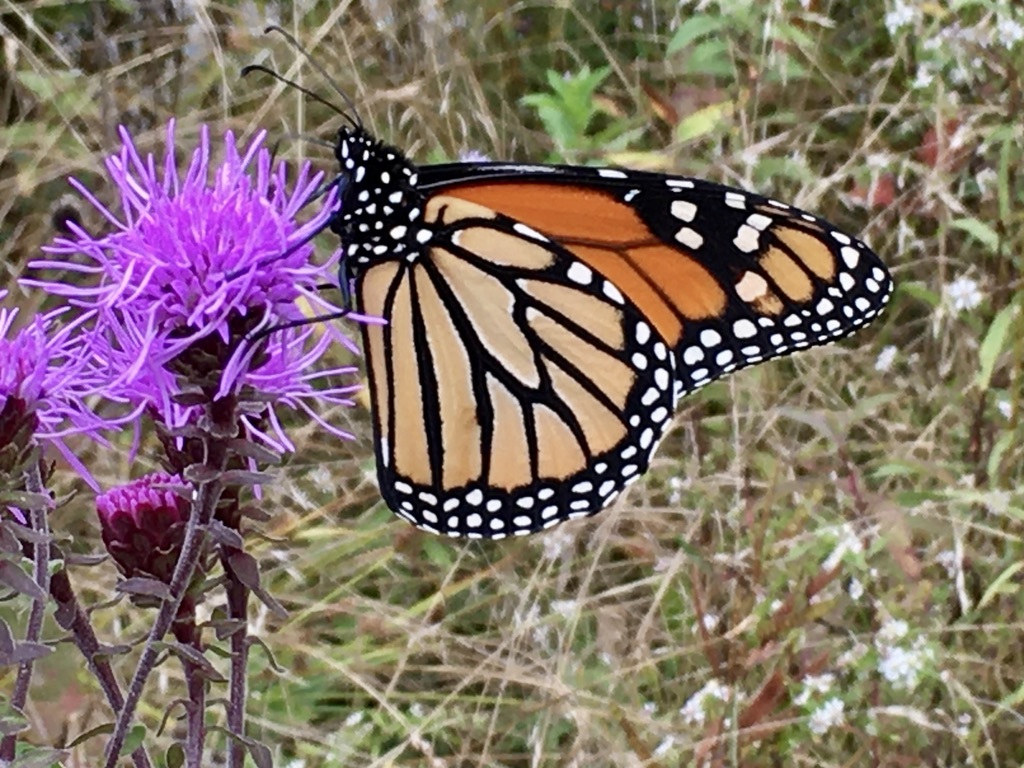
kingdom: Animalia
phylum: Arthropoda
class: Insecta
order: Lepidoptera
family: Nymphalidae
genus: Danaus
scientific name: Danaus plexippus
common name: Monarch
